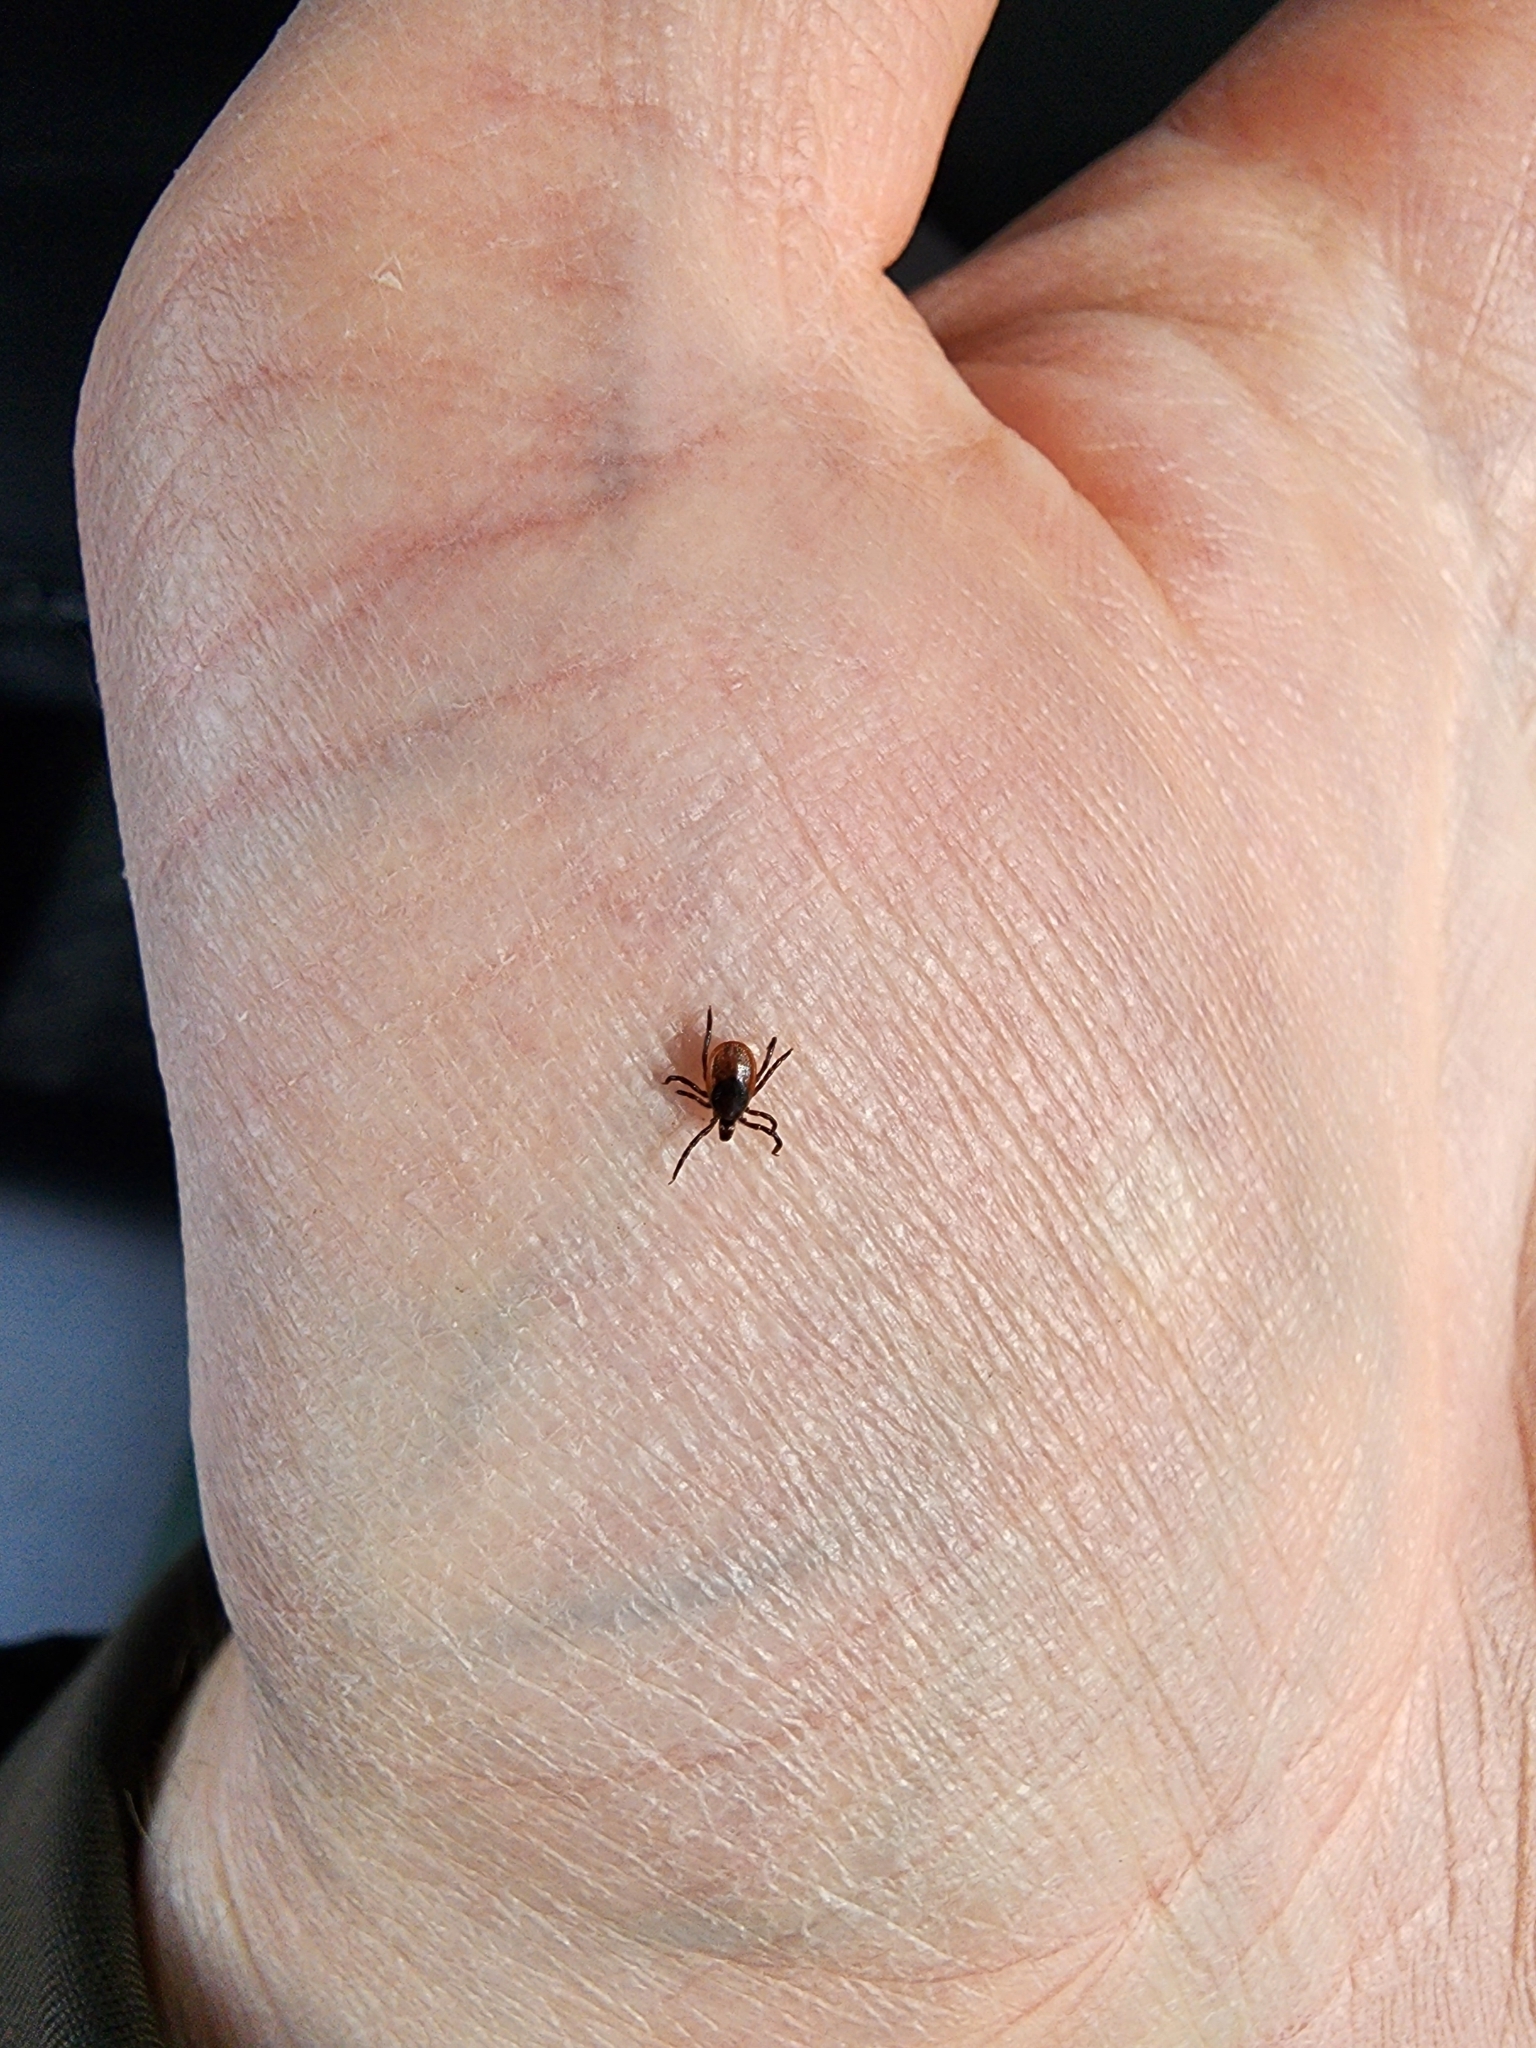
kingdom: Animalia
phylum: Arthropoda
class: Arachnida
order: Ixodida
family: Ixodidae
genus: Ixodes
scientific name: Ixodes scapularis
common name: Black legged tick
